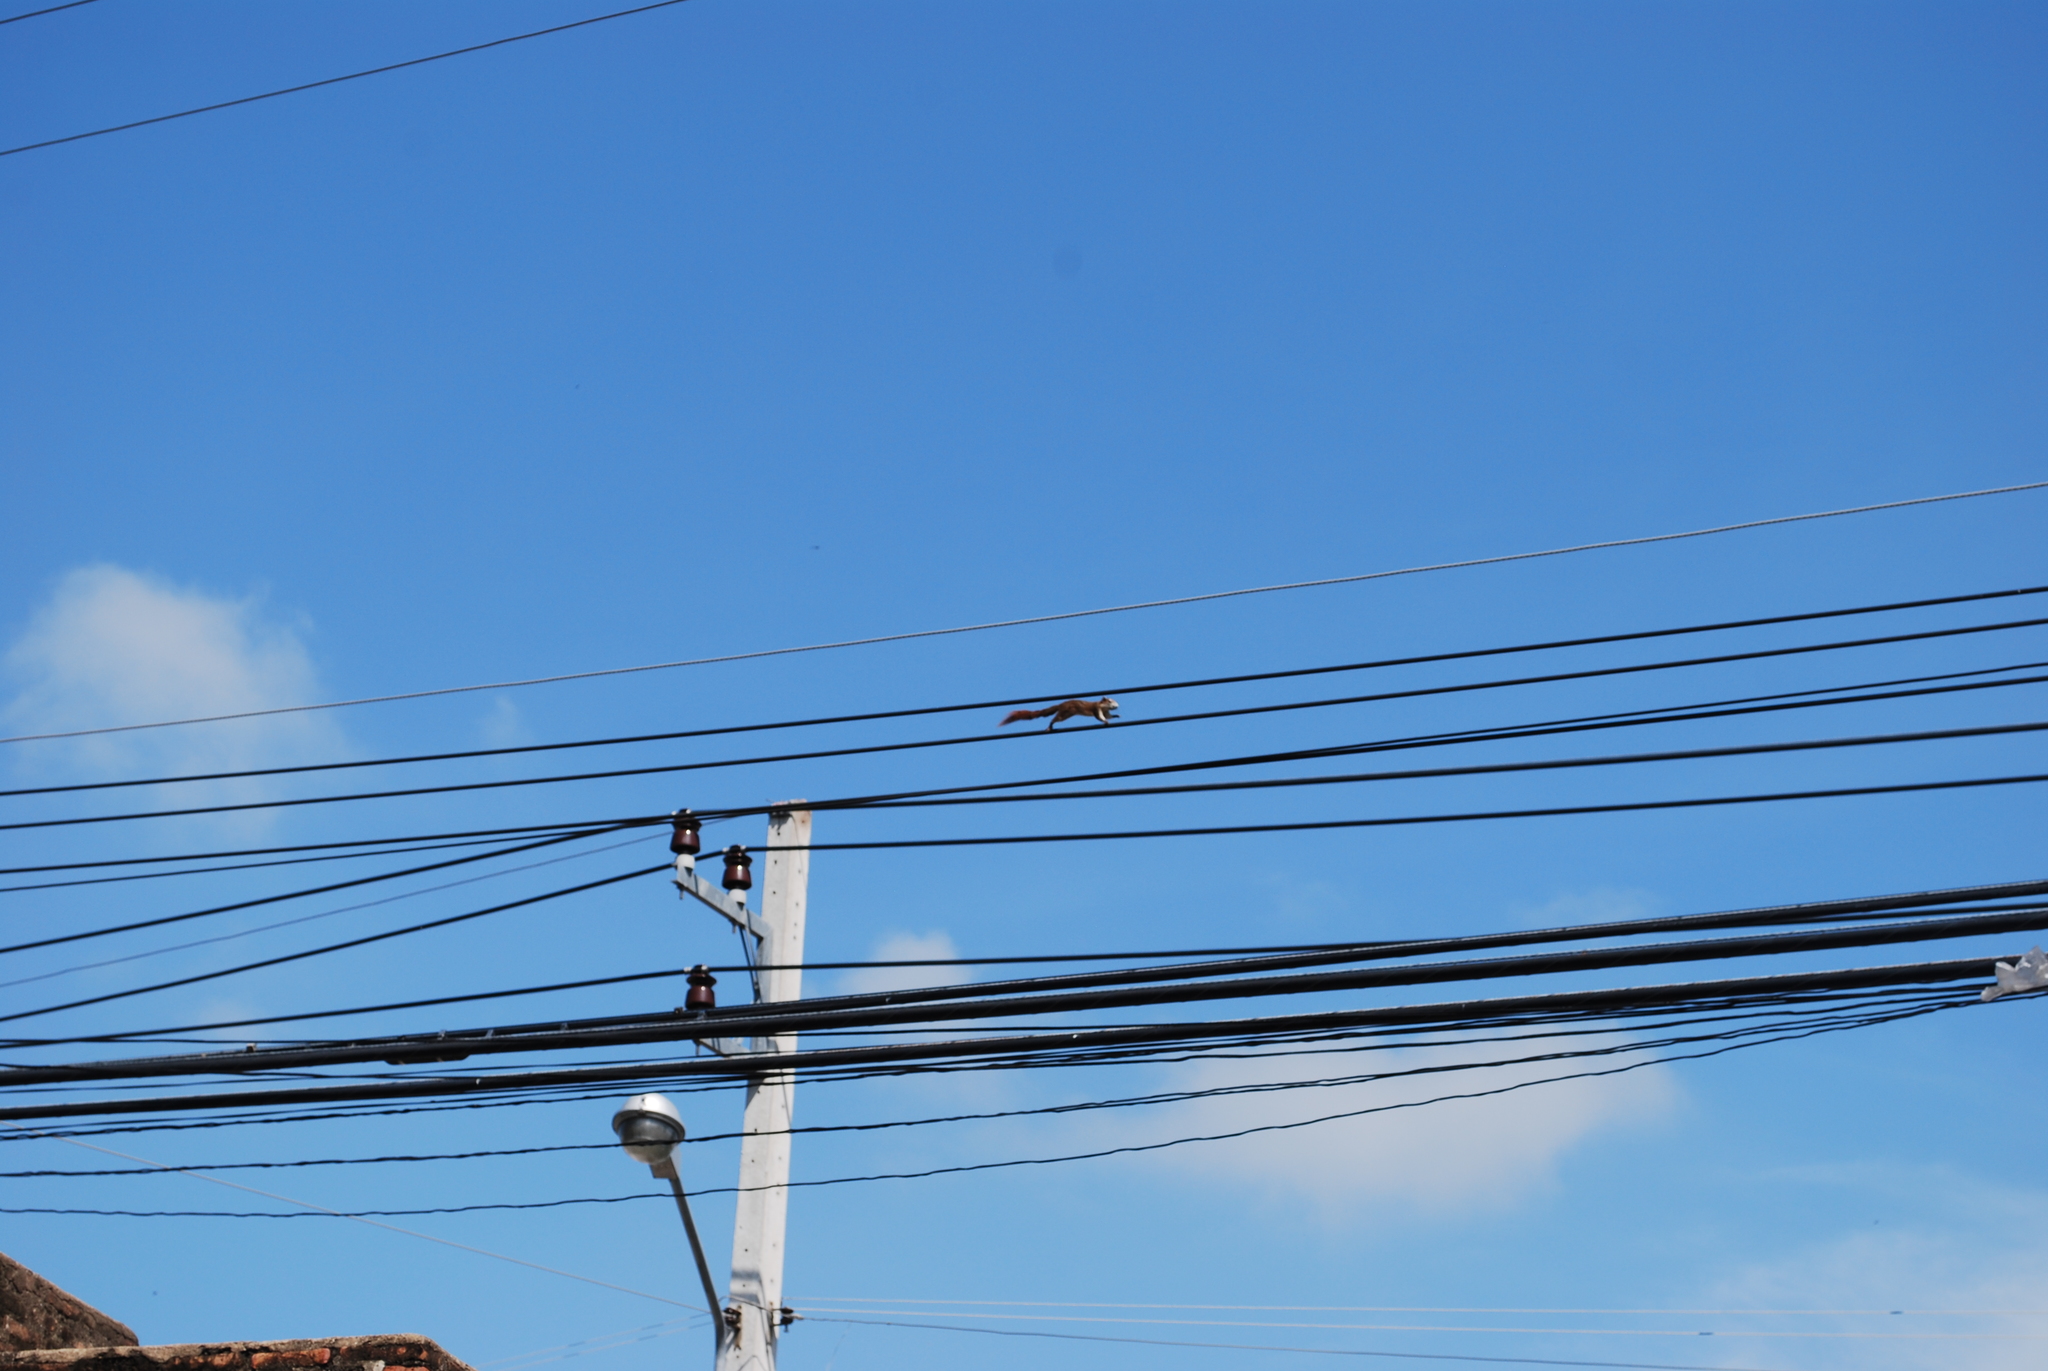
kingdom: Animalia
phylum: Chordata
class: Mammalia
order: Rodentia
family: Sciuridae
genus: Callosciurus
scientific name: Callosciurus finlaysonii
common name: Finlayson's squirrel
